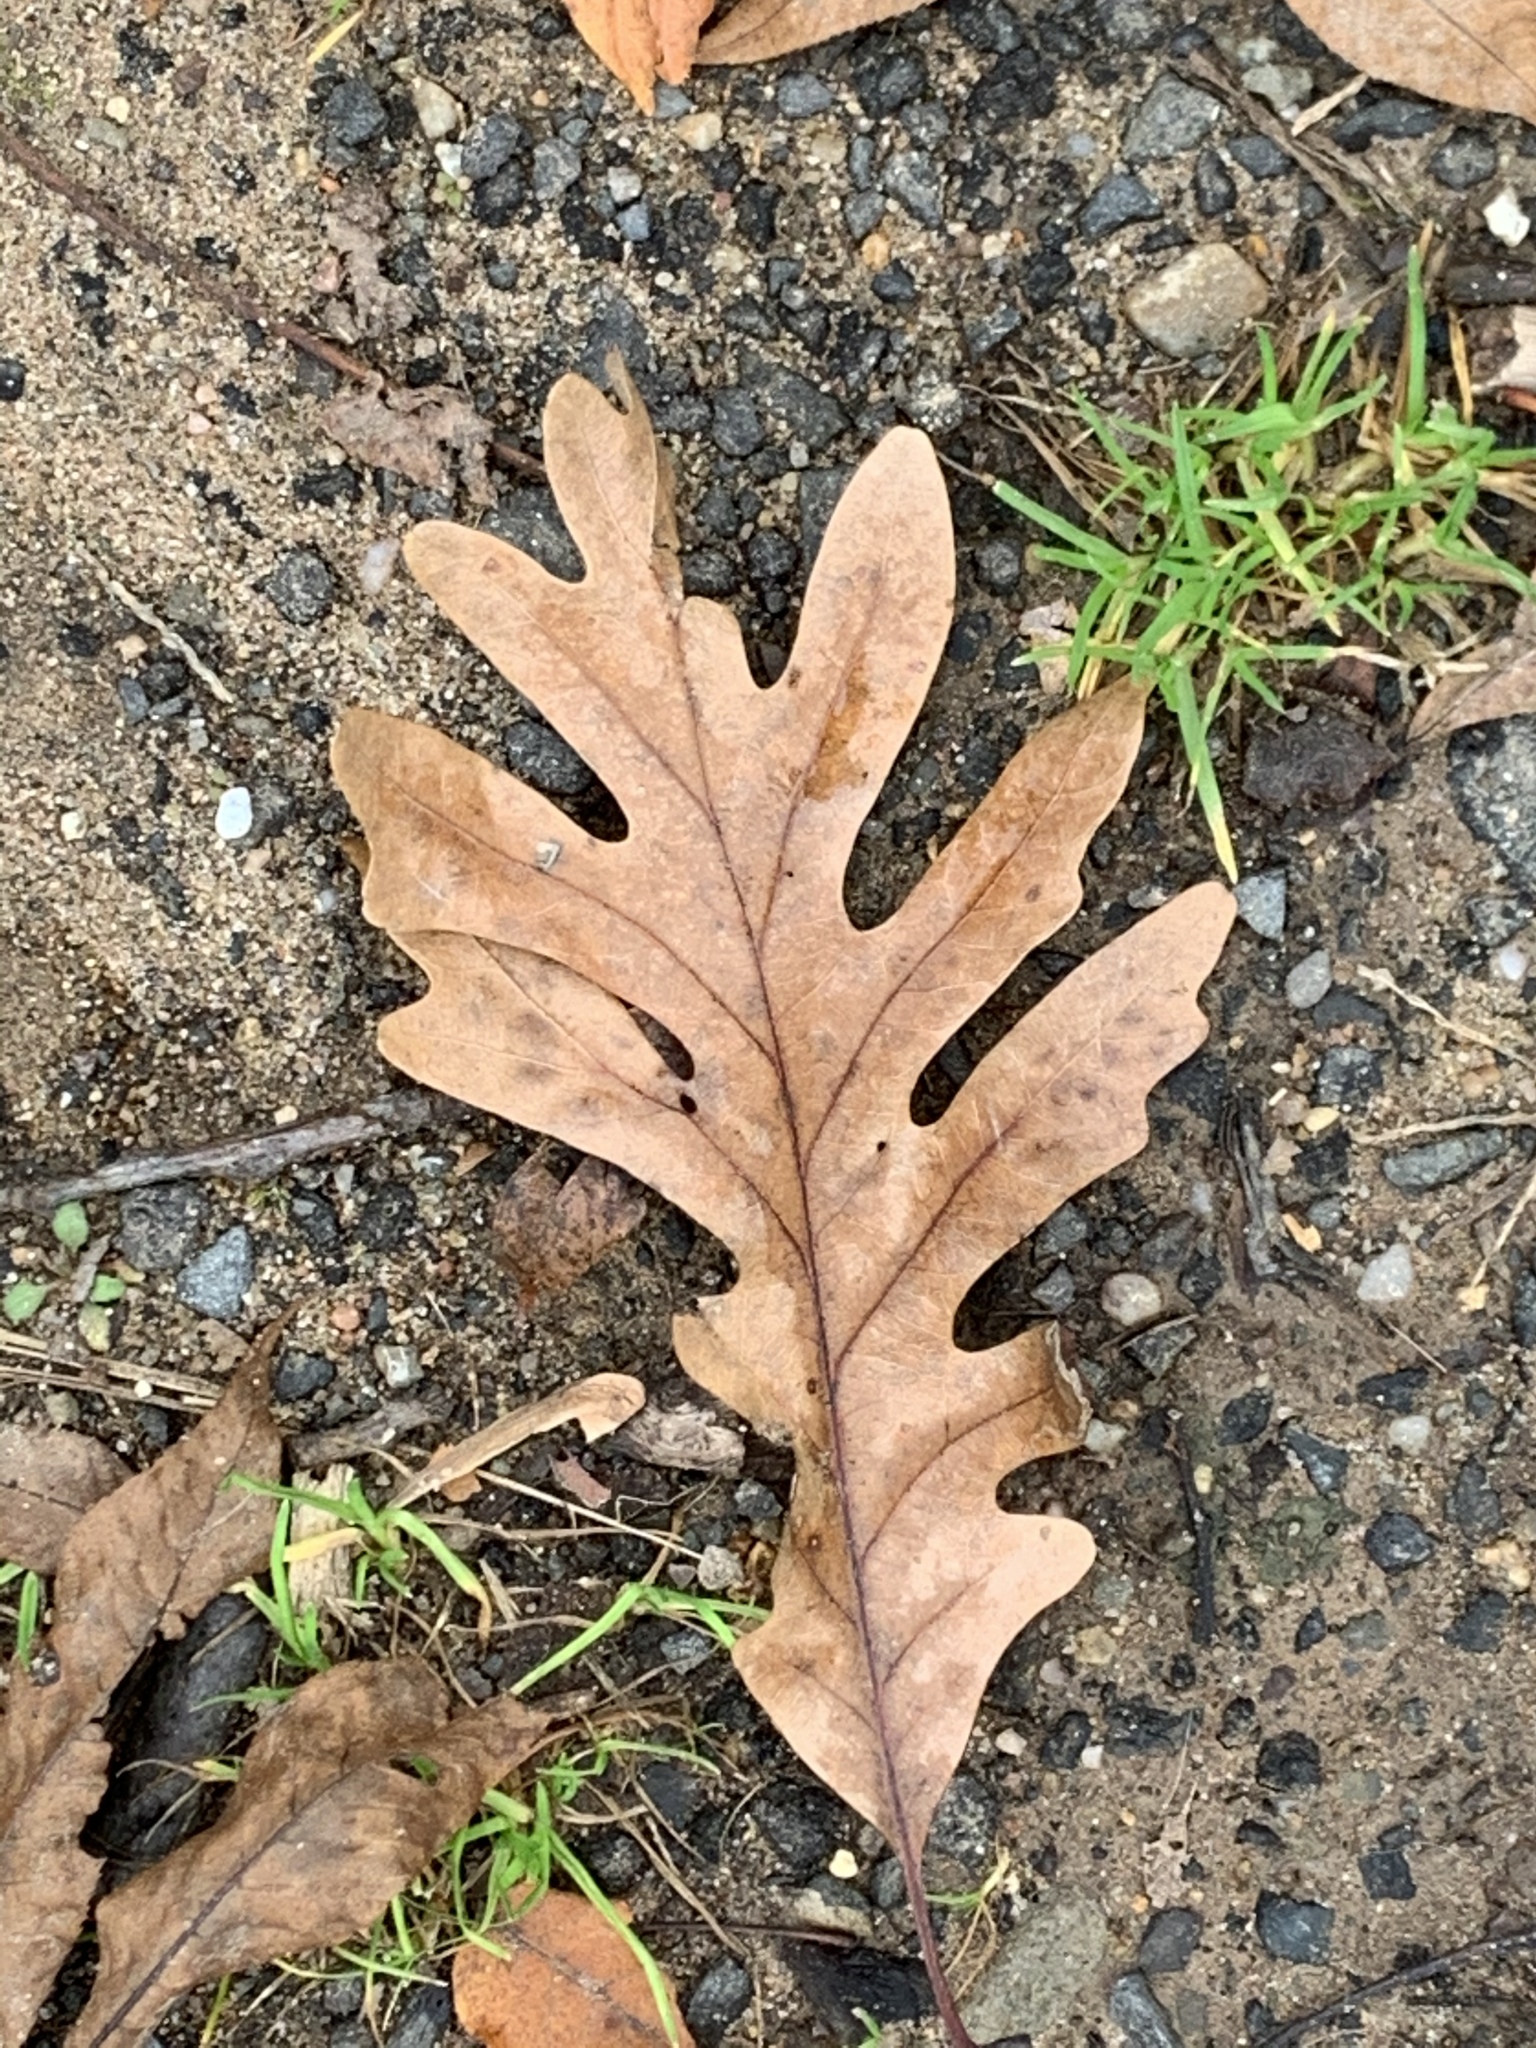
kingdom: Plantae
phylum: Tracheophyta
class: Magnoliopsida
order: Fagales
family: Fagaceae
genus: Quercus
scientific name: Quercus alba
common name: White oak
